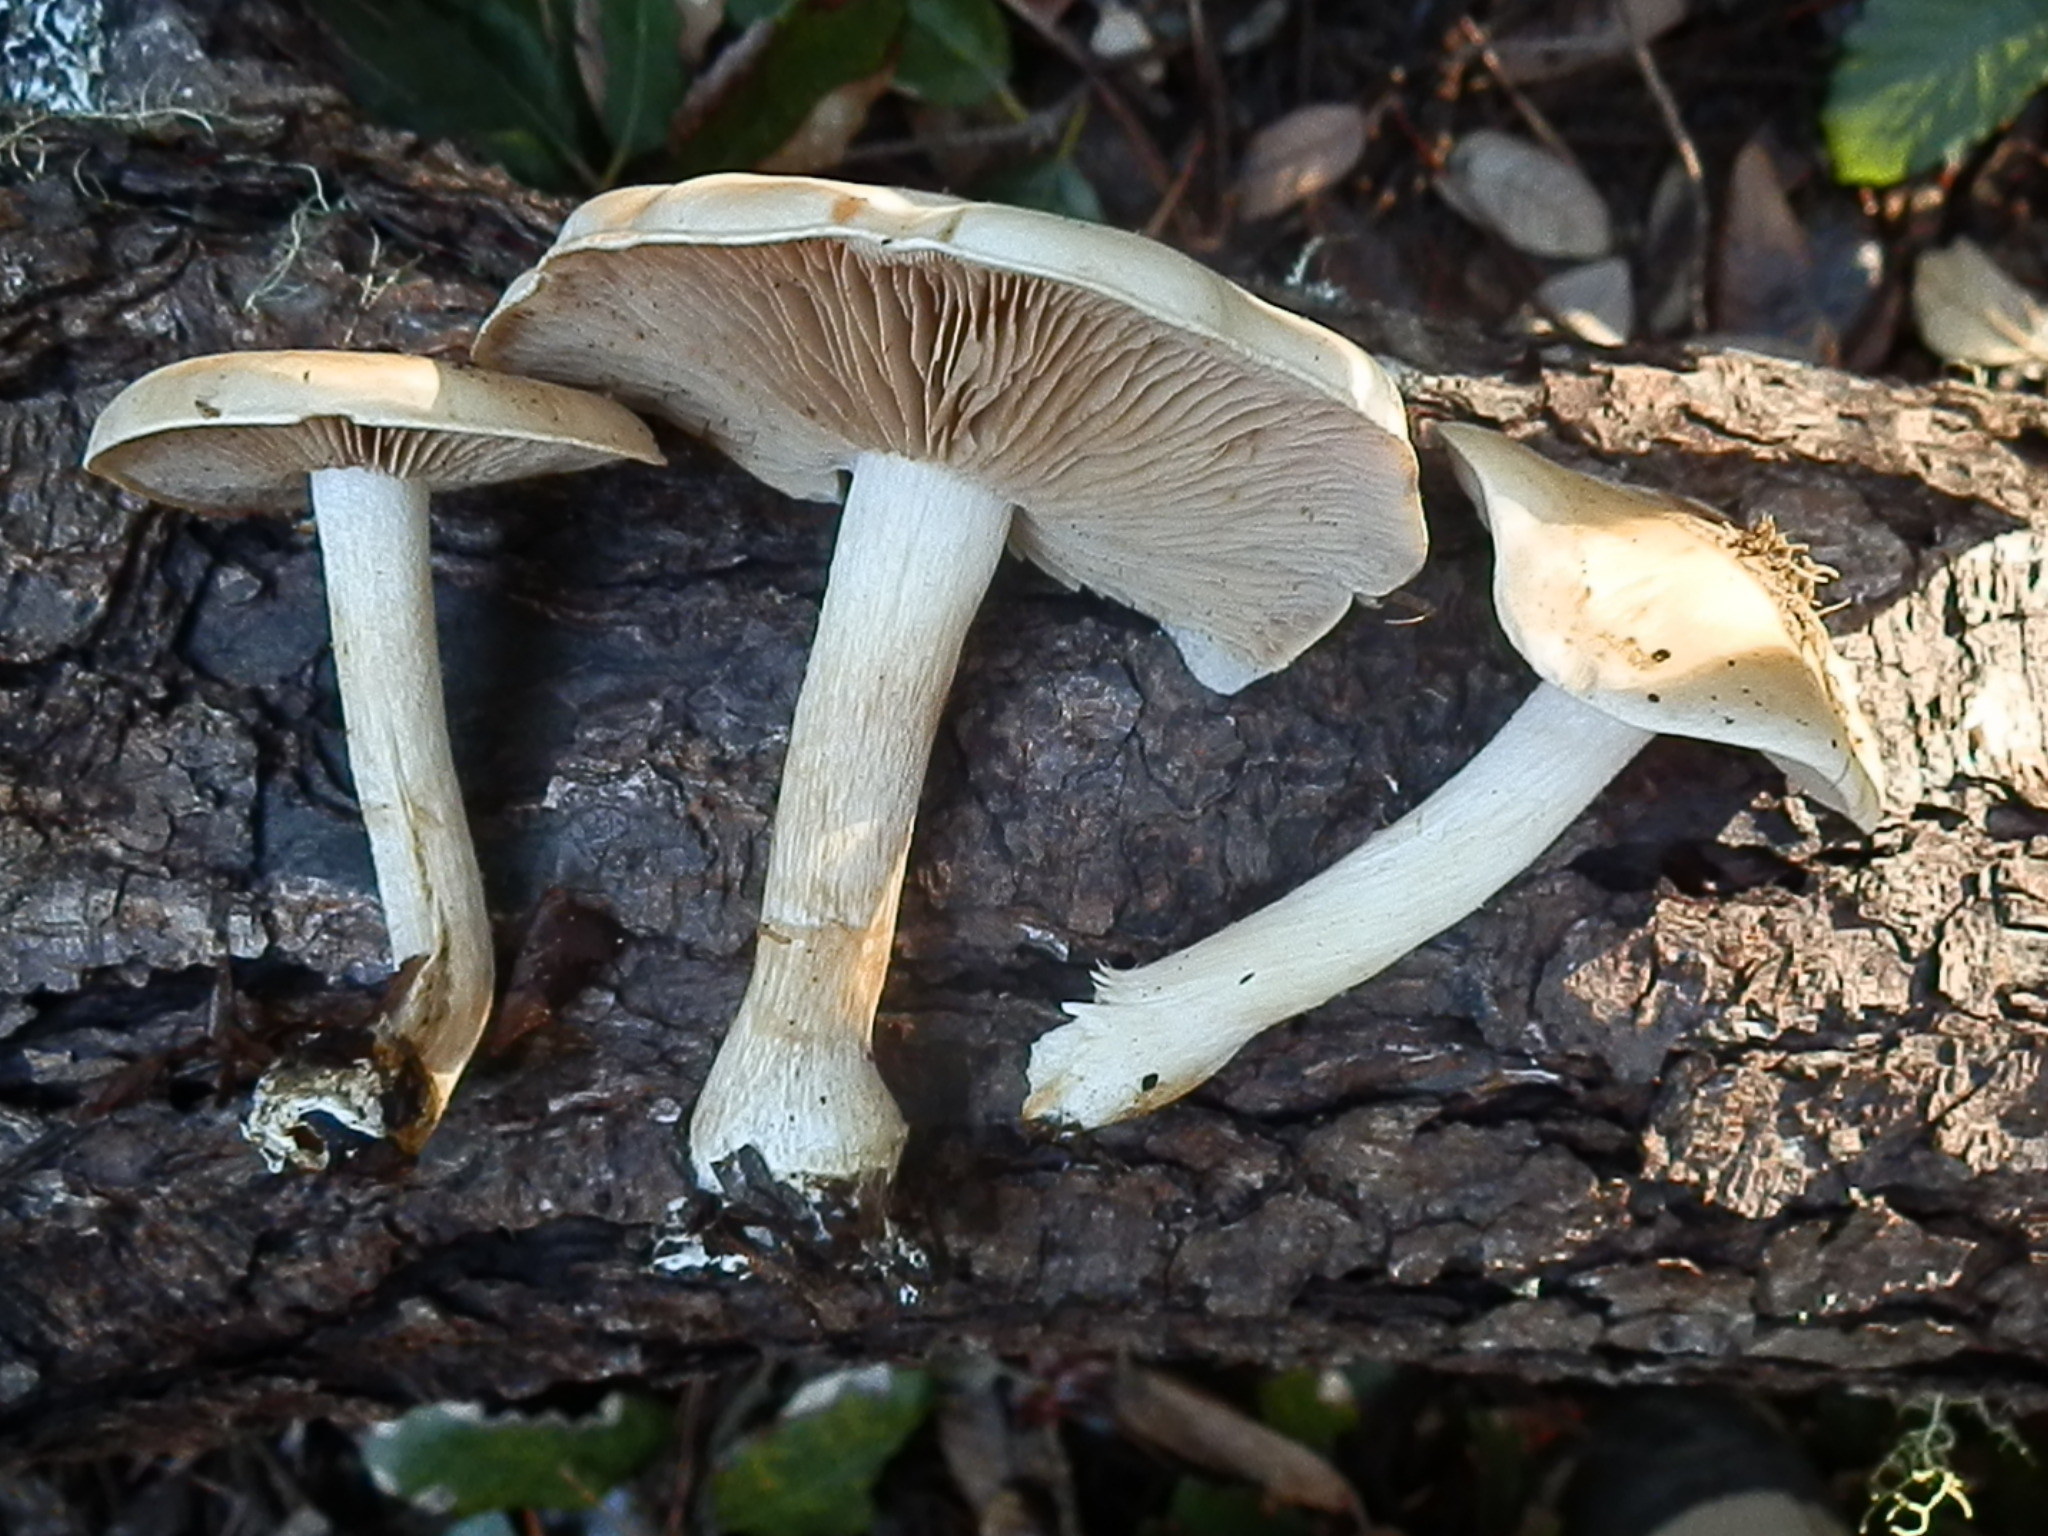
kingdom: Fungi
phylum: Basidiomycota
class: Agaricomycetes
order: Agaricales
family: Hymenogastraceae
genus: Hebeloma
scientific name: Hebeloma leucosarx
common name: Birch poisonpie
